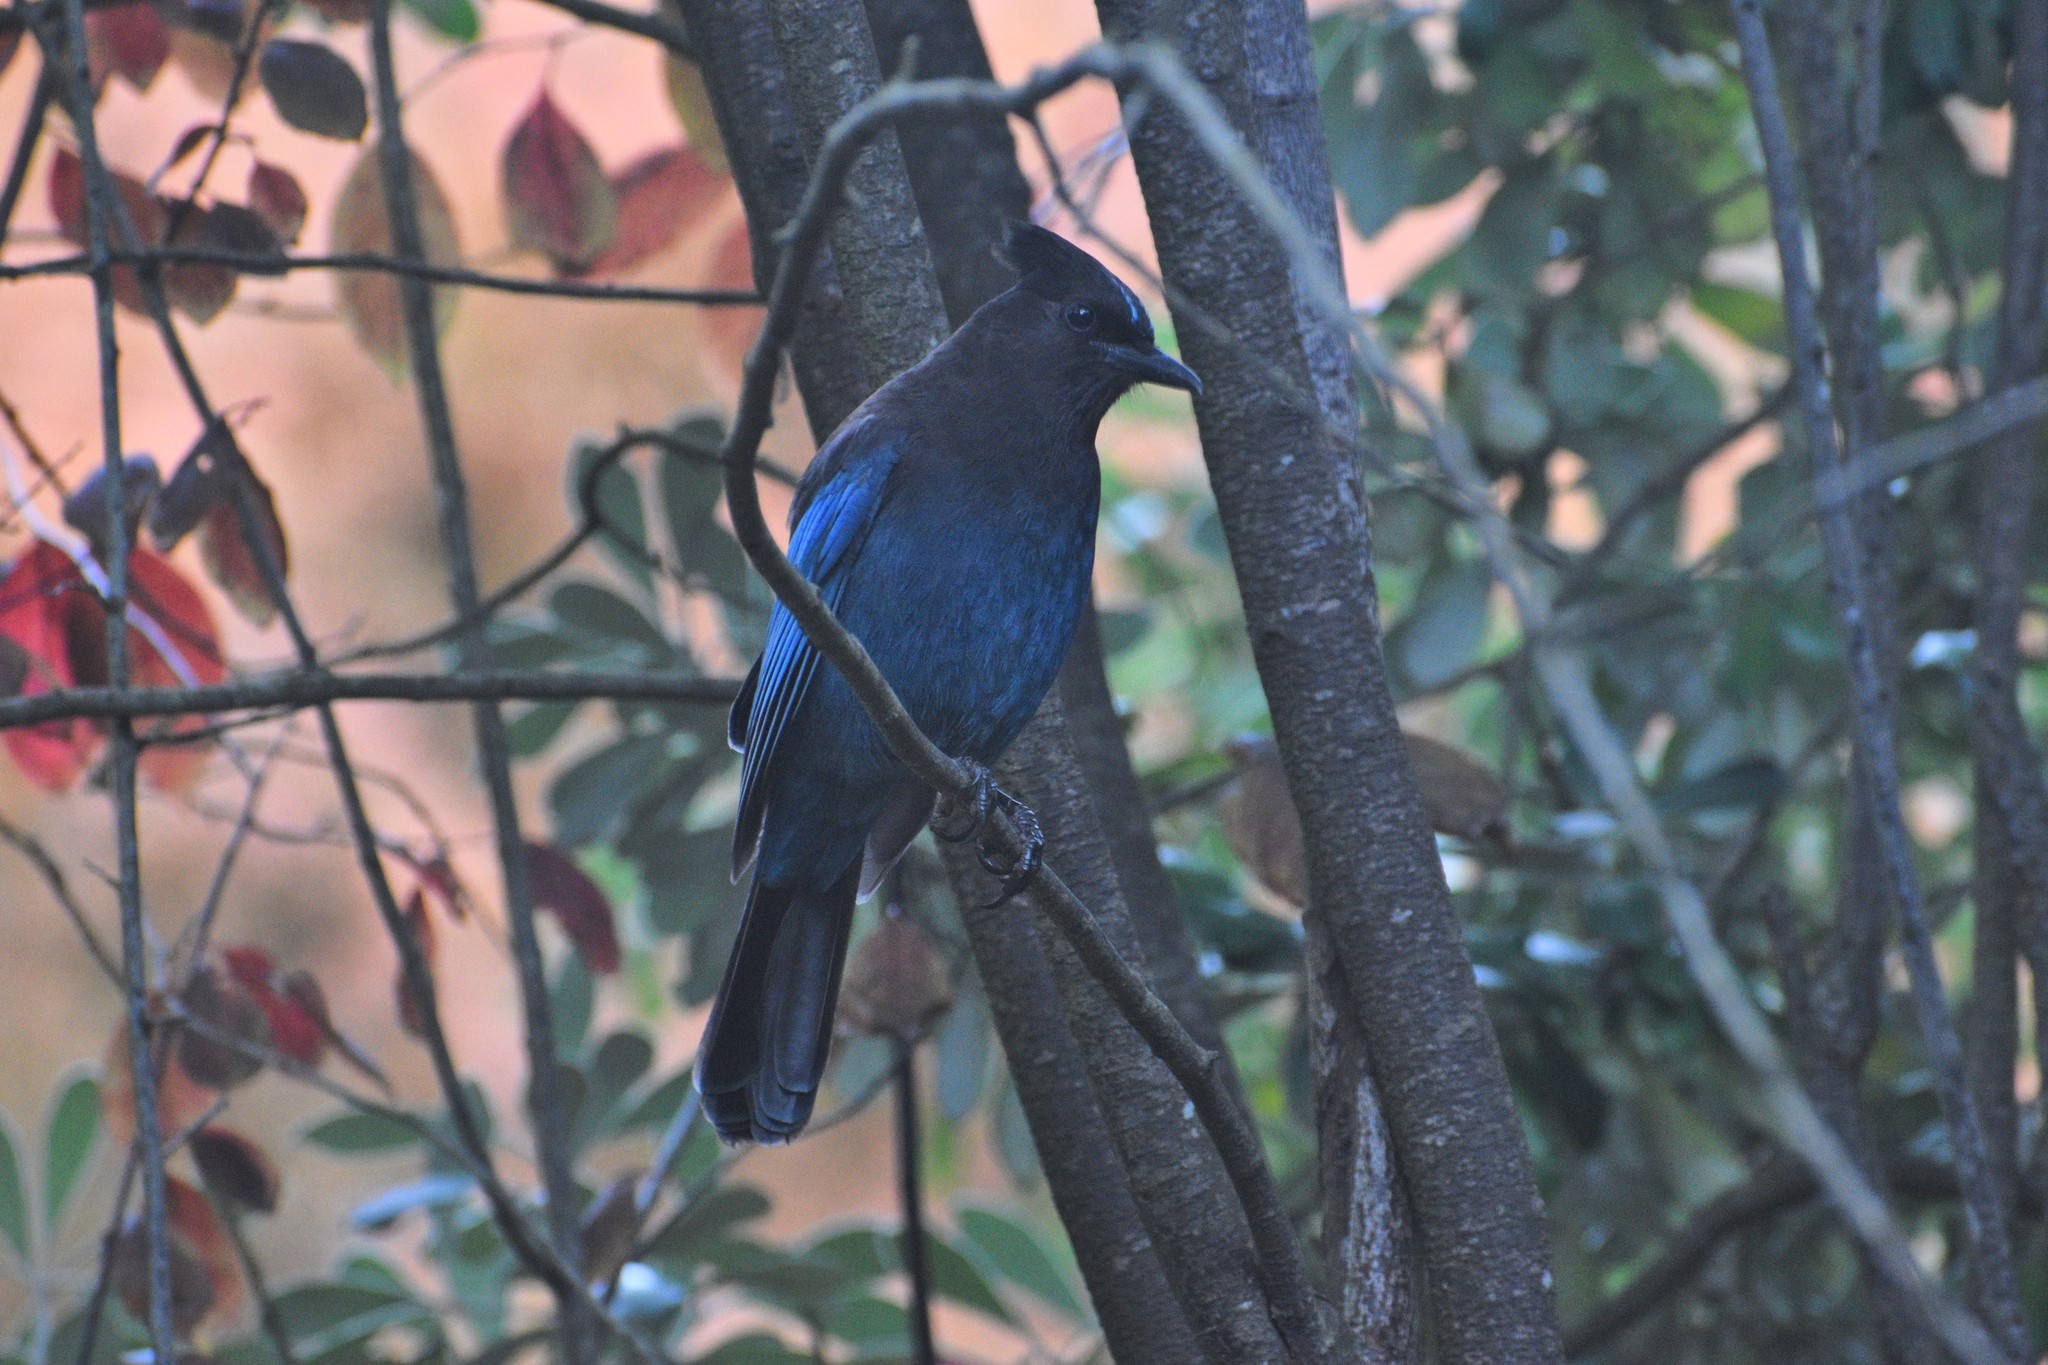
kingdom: Animalia
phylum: Chordata
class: Aves
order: Passeriformes
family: Corvidae
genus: Cyanocitta
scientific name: Cyanocitta stelleri
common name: Steller's jay
